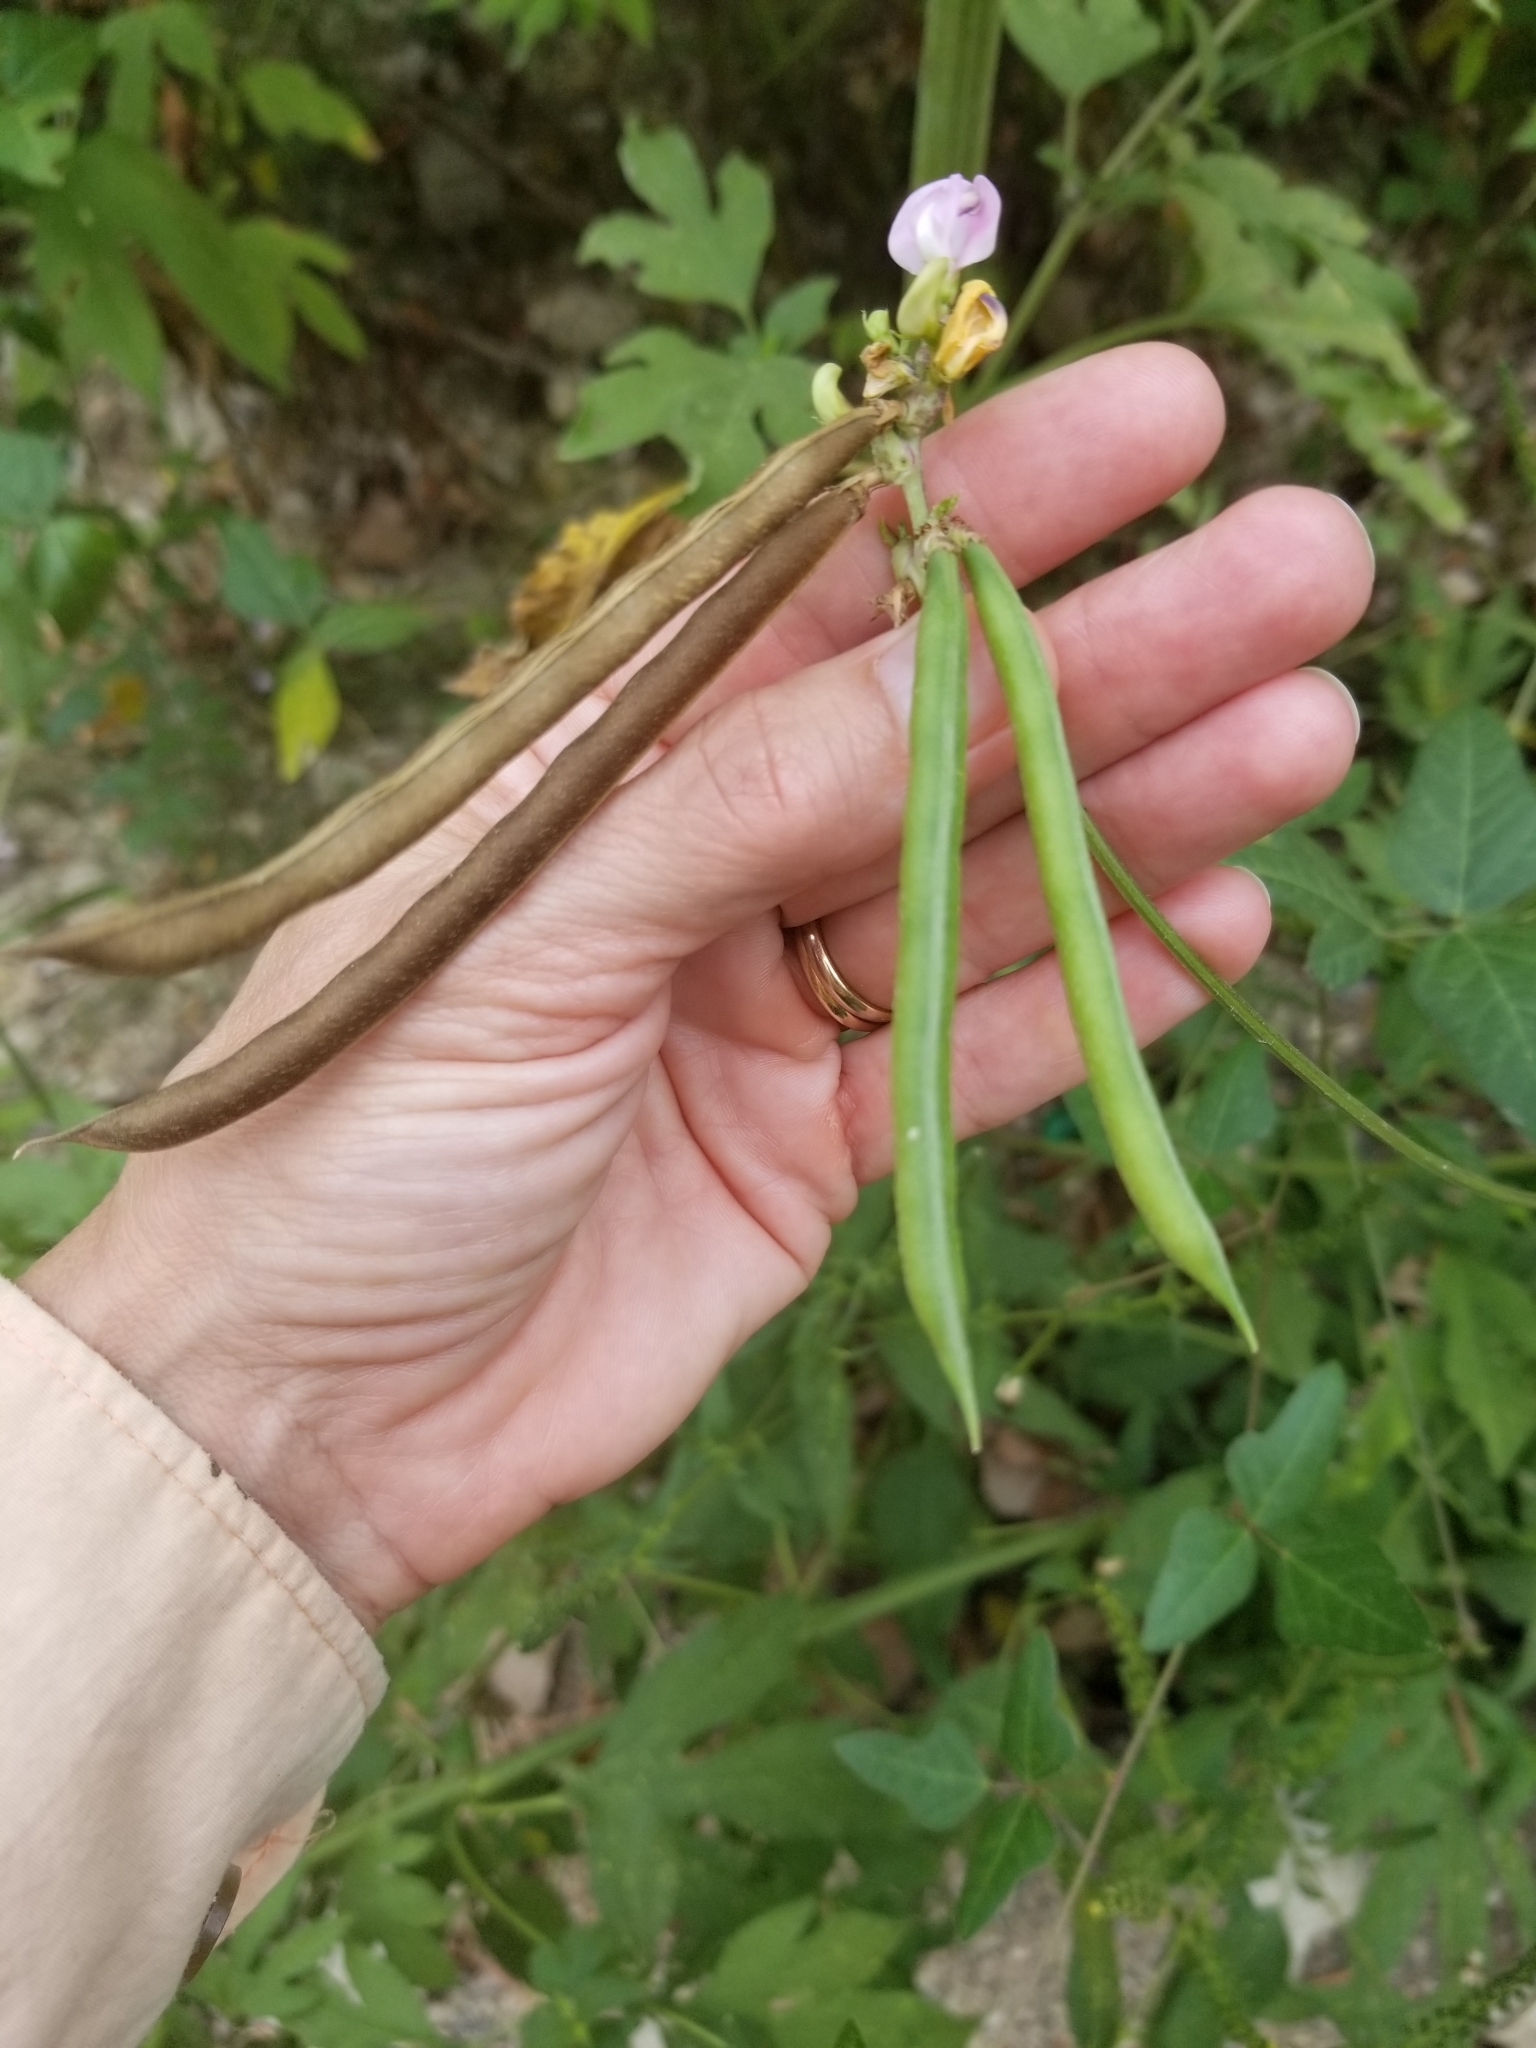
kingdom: Plantae
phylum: Tracheophyta
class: Magnoliopsida
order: Fabales
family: Fabaceae
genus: Strophostyles
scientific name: Strophostyles helvola
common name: Trailing wild bean
